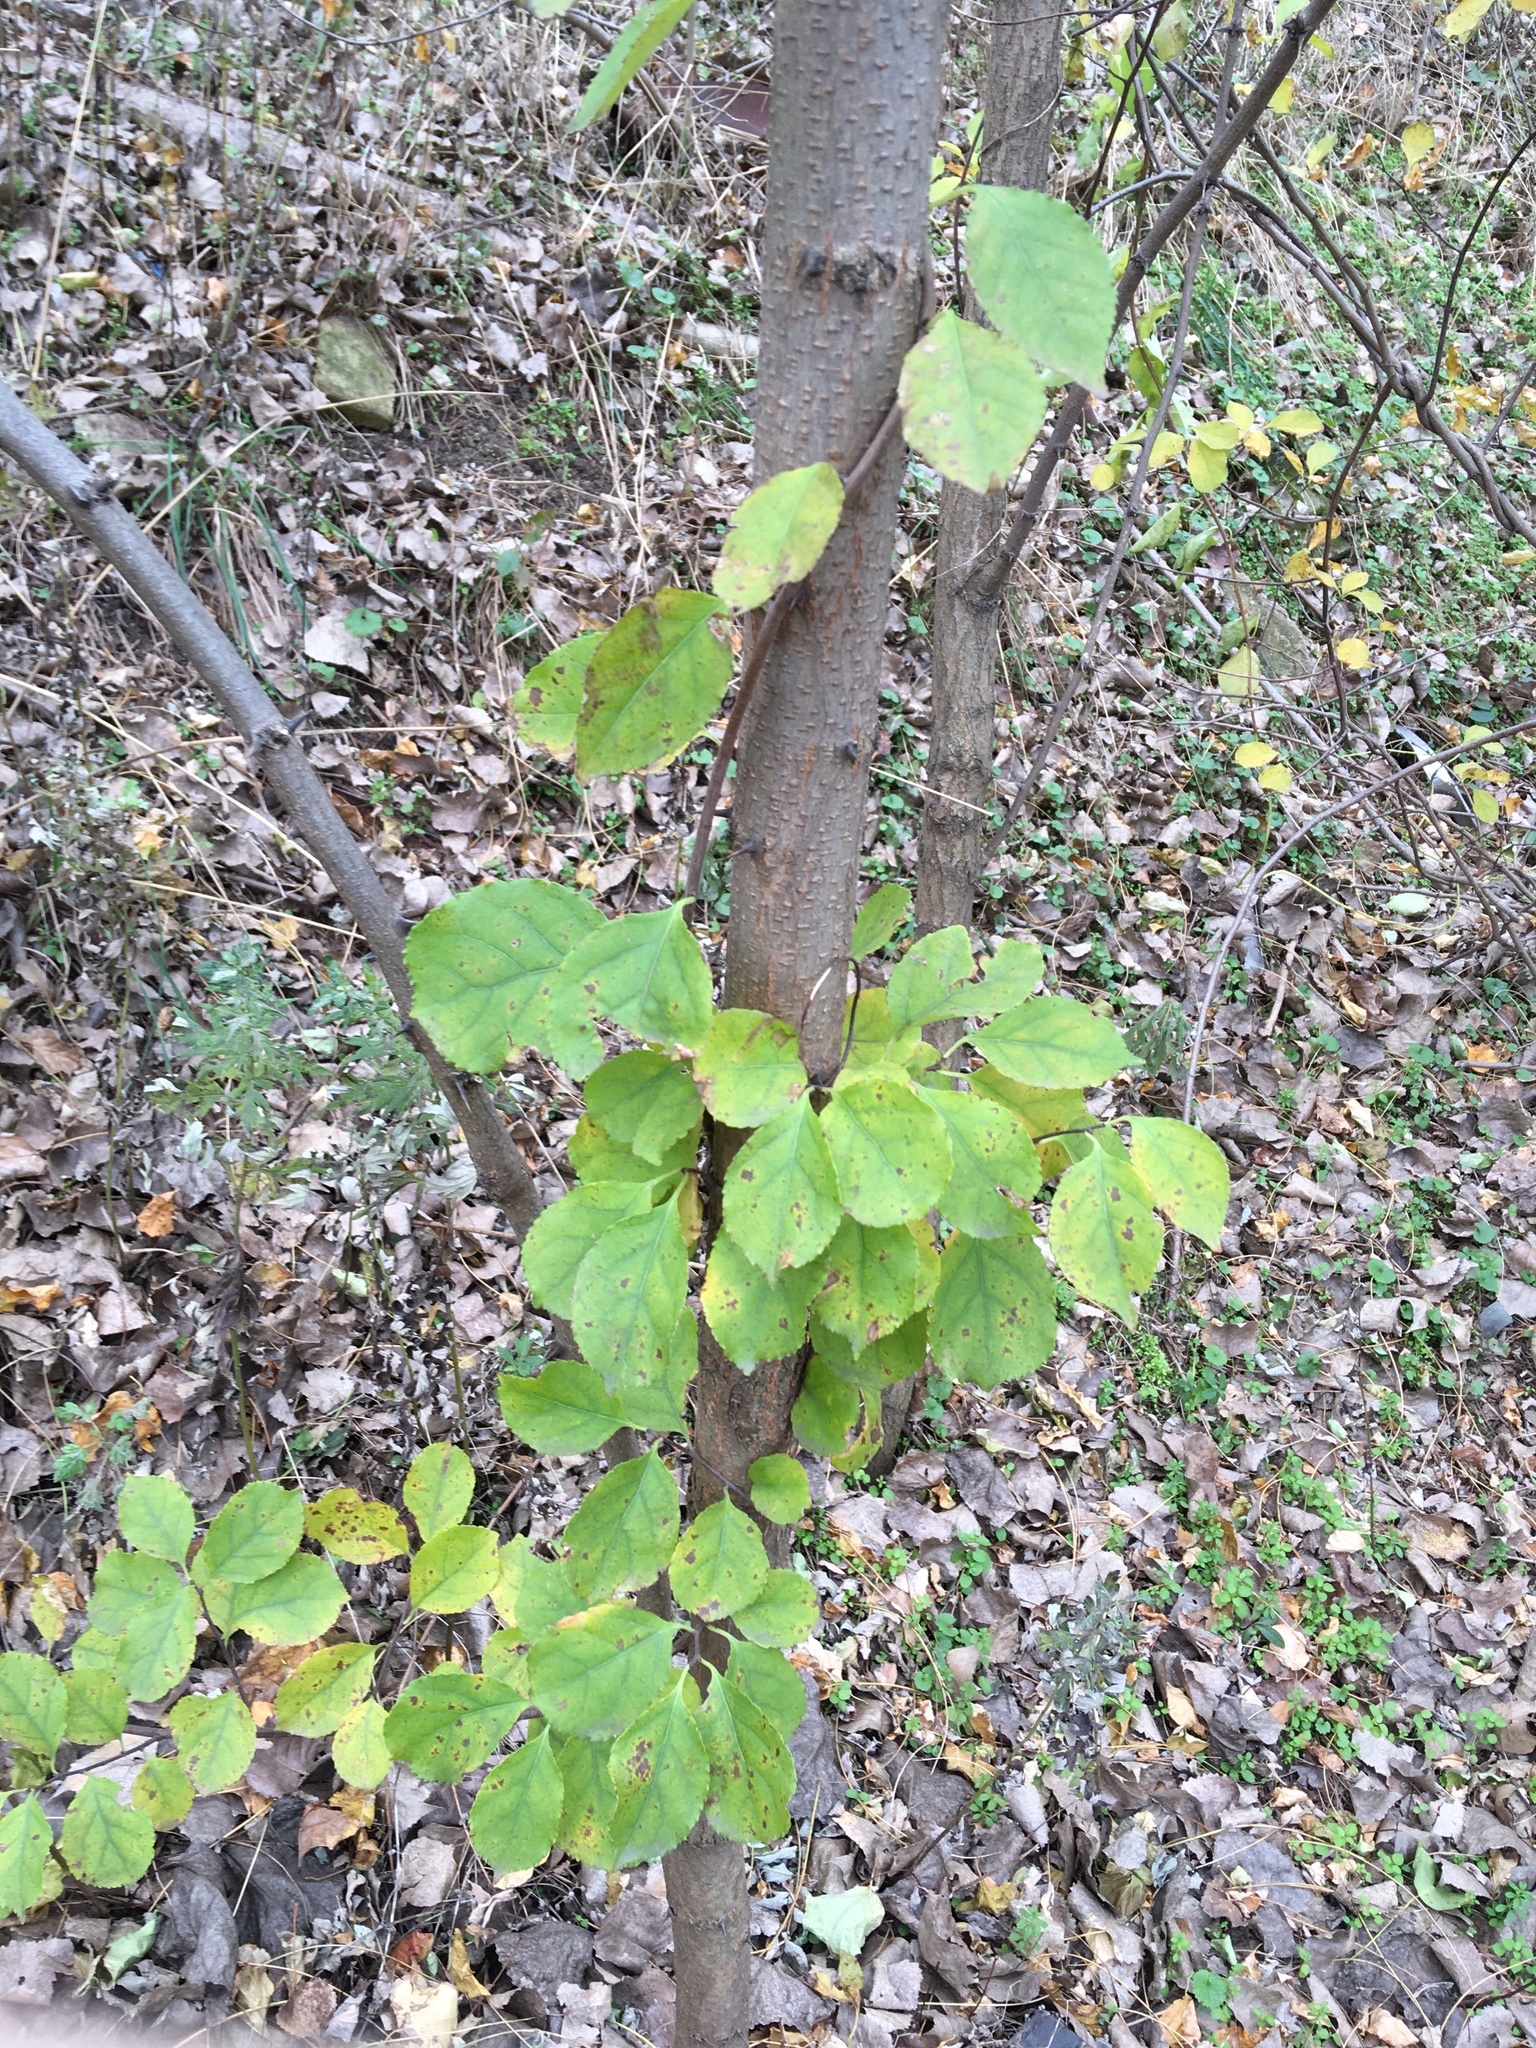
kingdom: Plantae
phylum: Tracheophyta
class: Magnoliopsida
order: Celastrales
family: Celastraceae
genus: Celastrus
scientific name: Celastrus orbiculatus
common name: Oriental bittersweet
